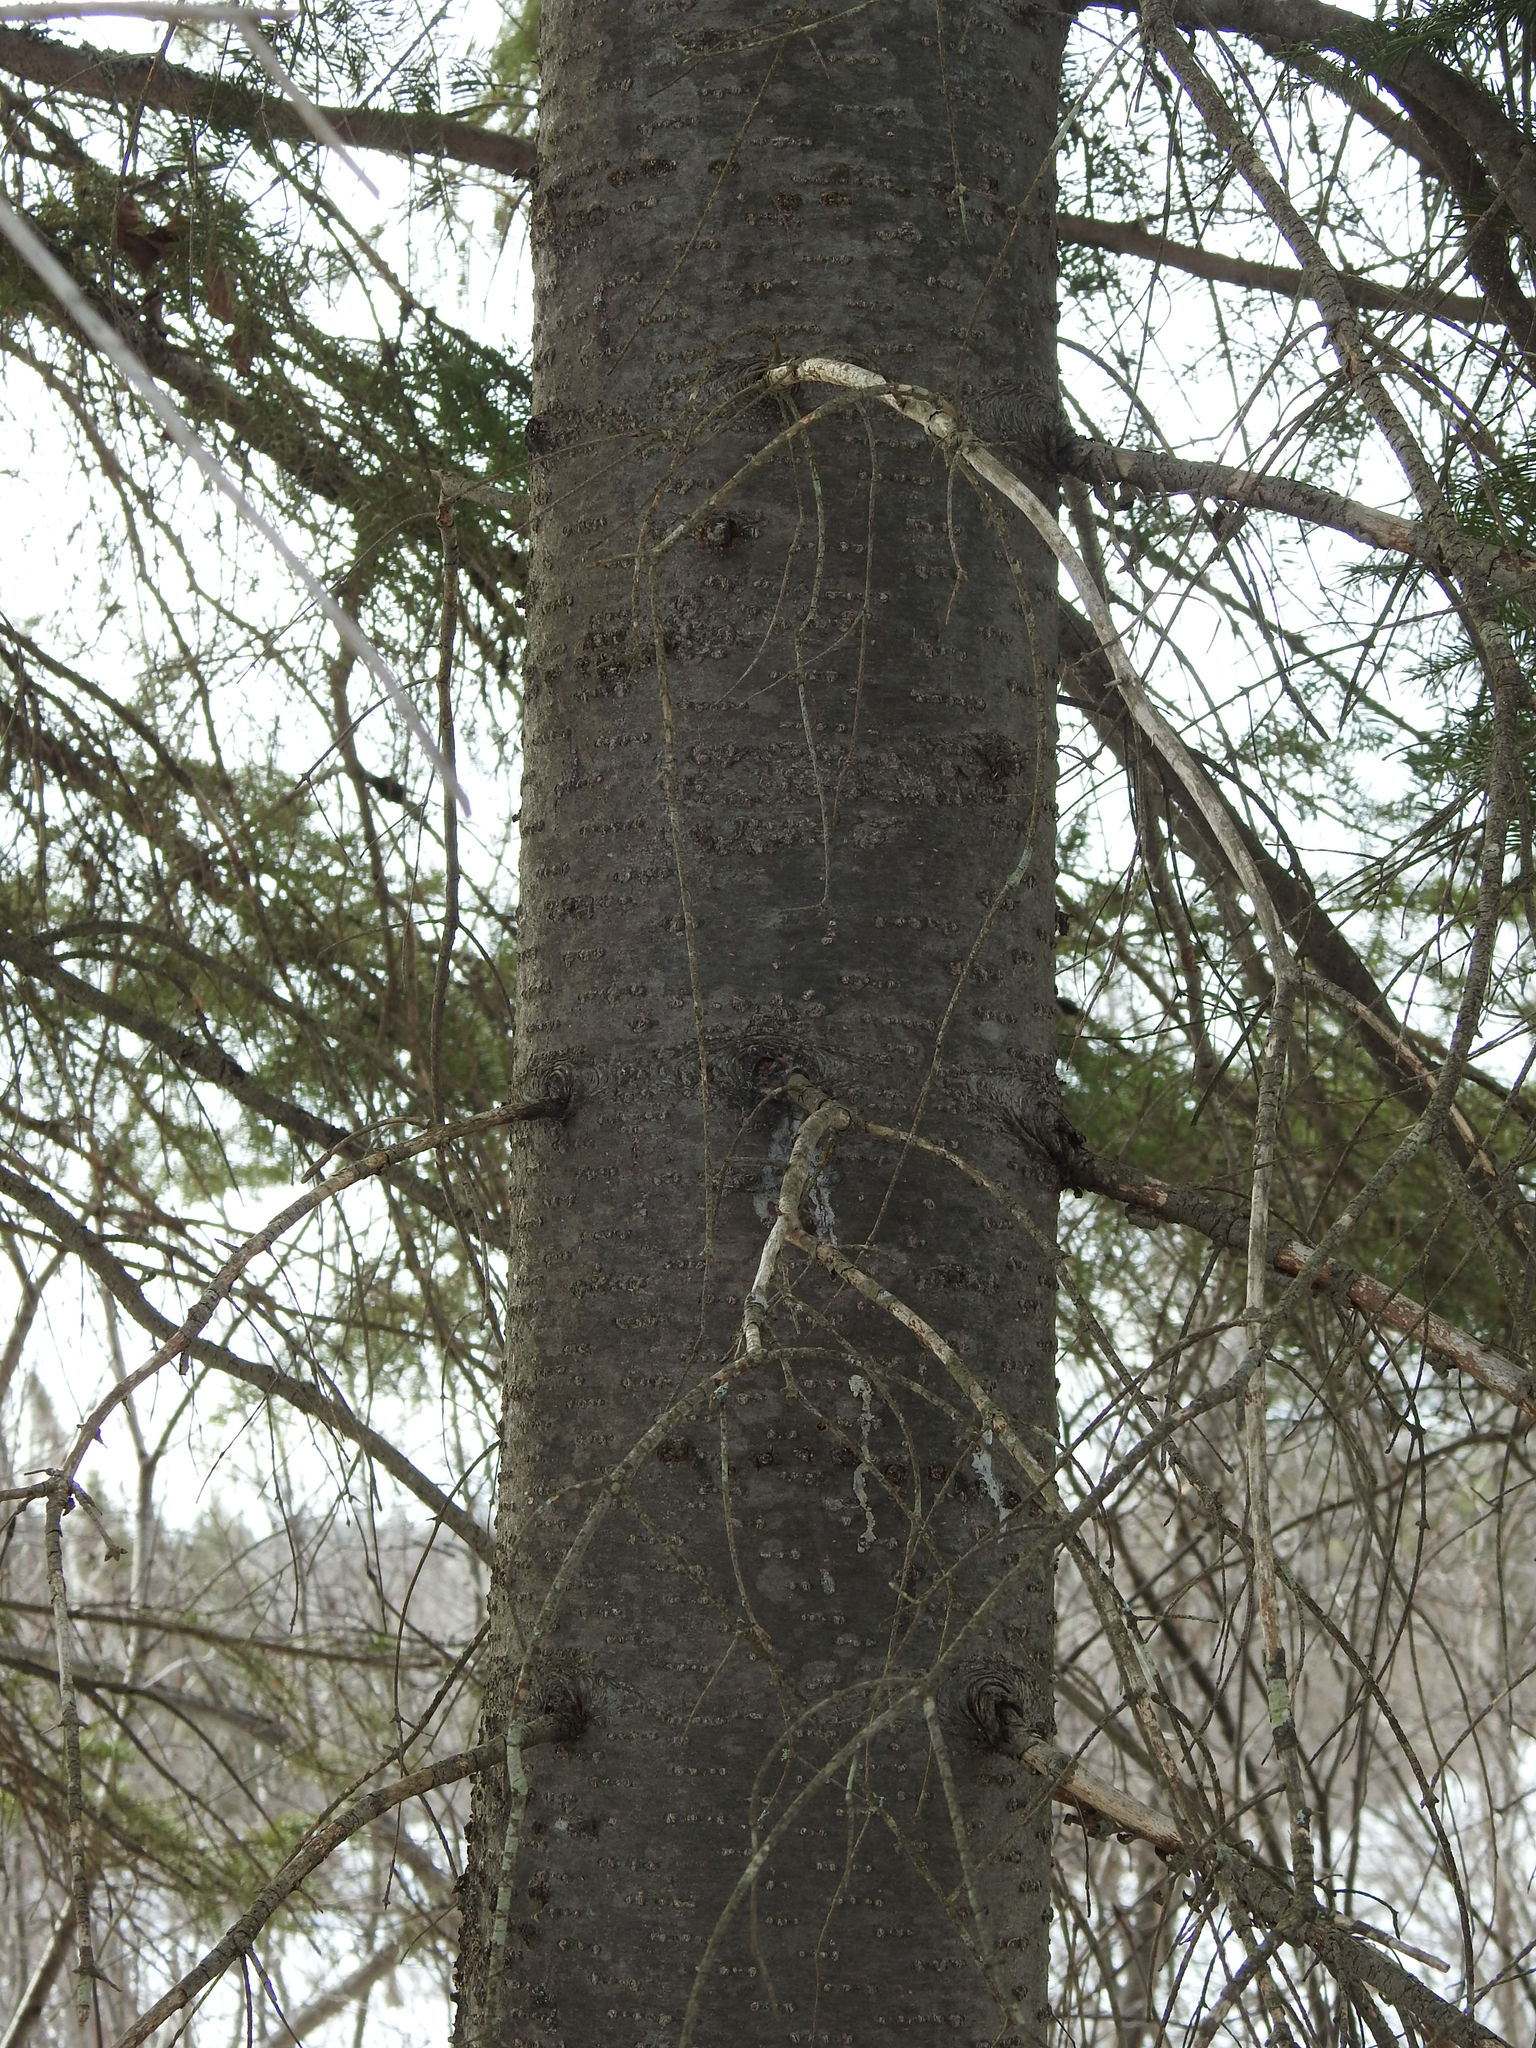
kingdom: Plantae
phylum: Tracheophyta
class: Pinopsida
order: Pinales
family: Pinaceae
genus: Abies
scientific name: Abies balsamea
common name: Balsam fir
